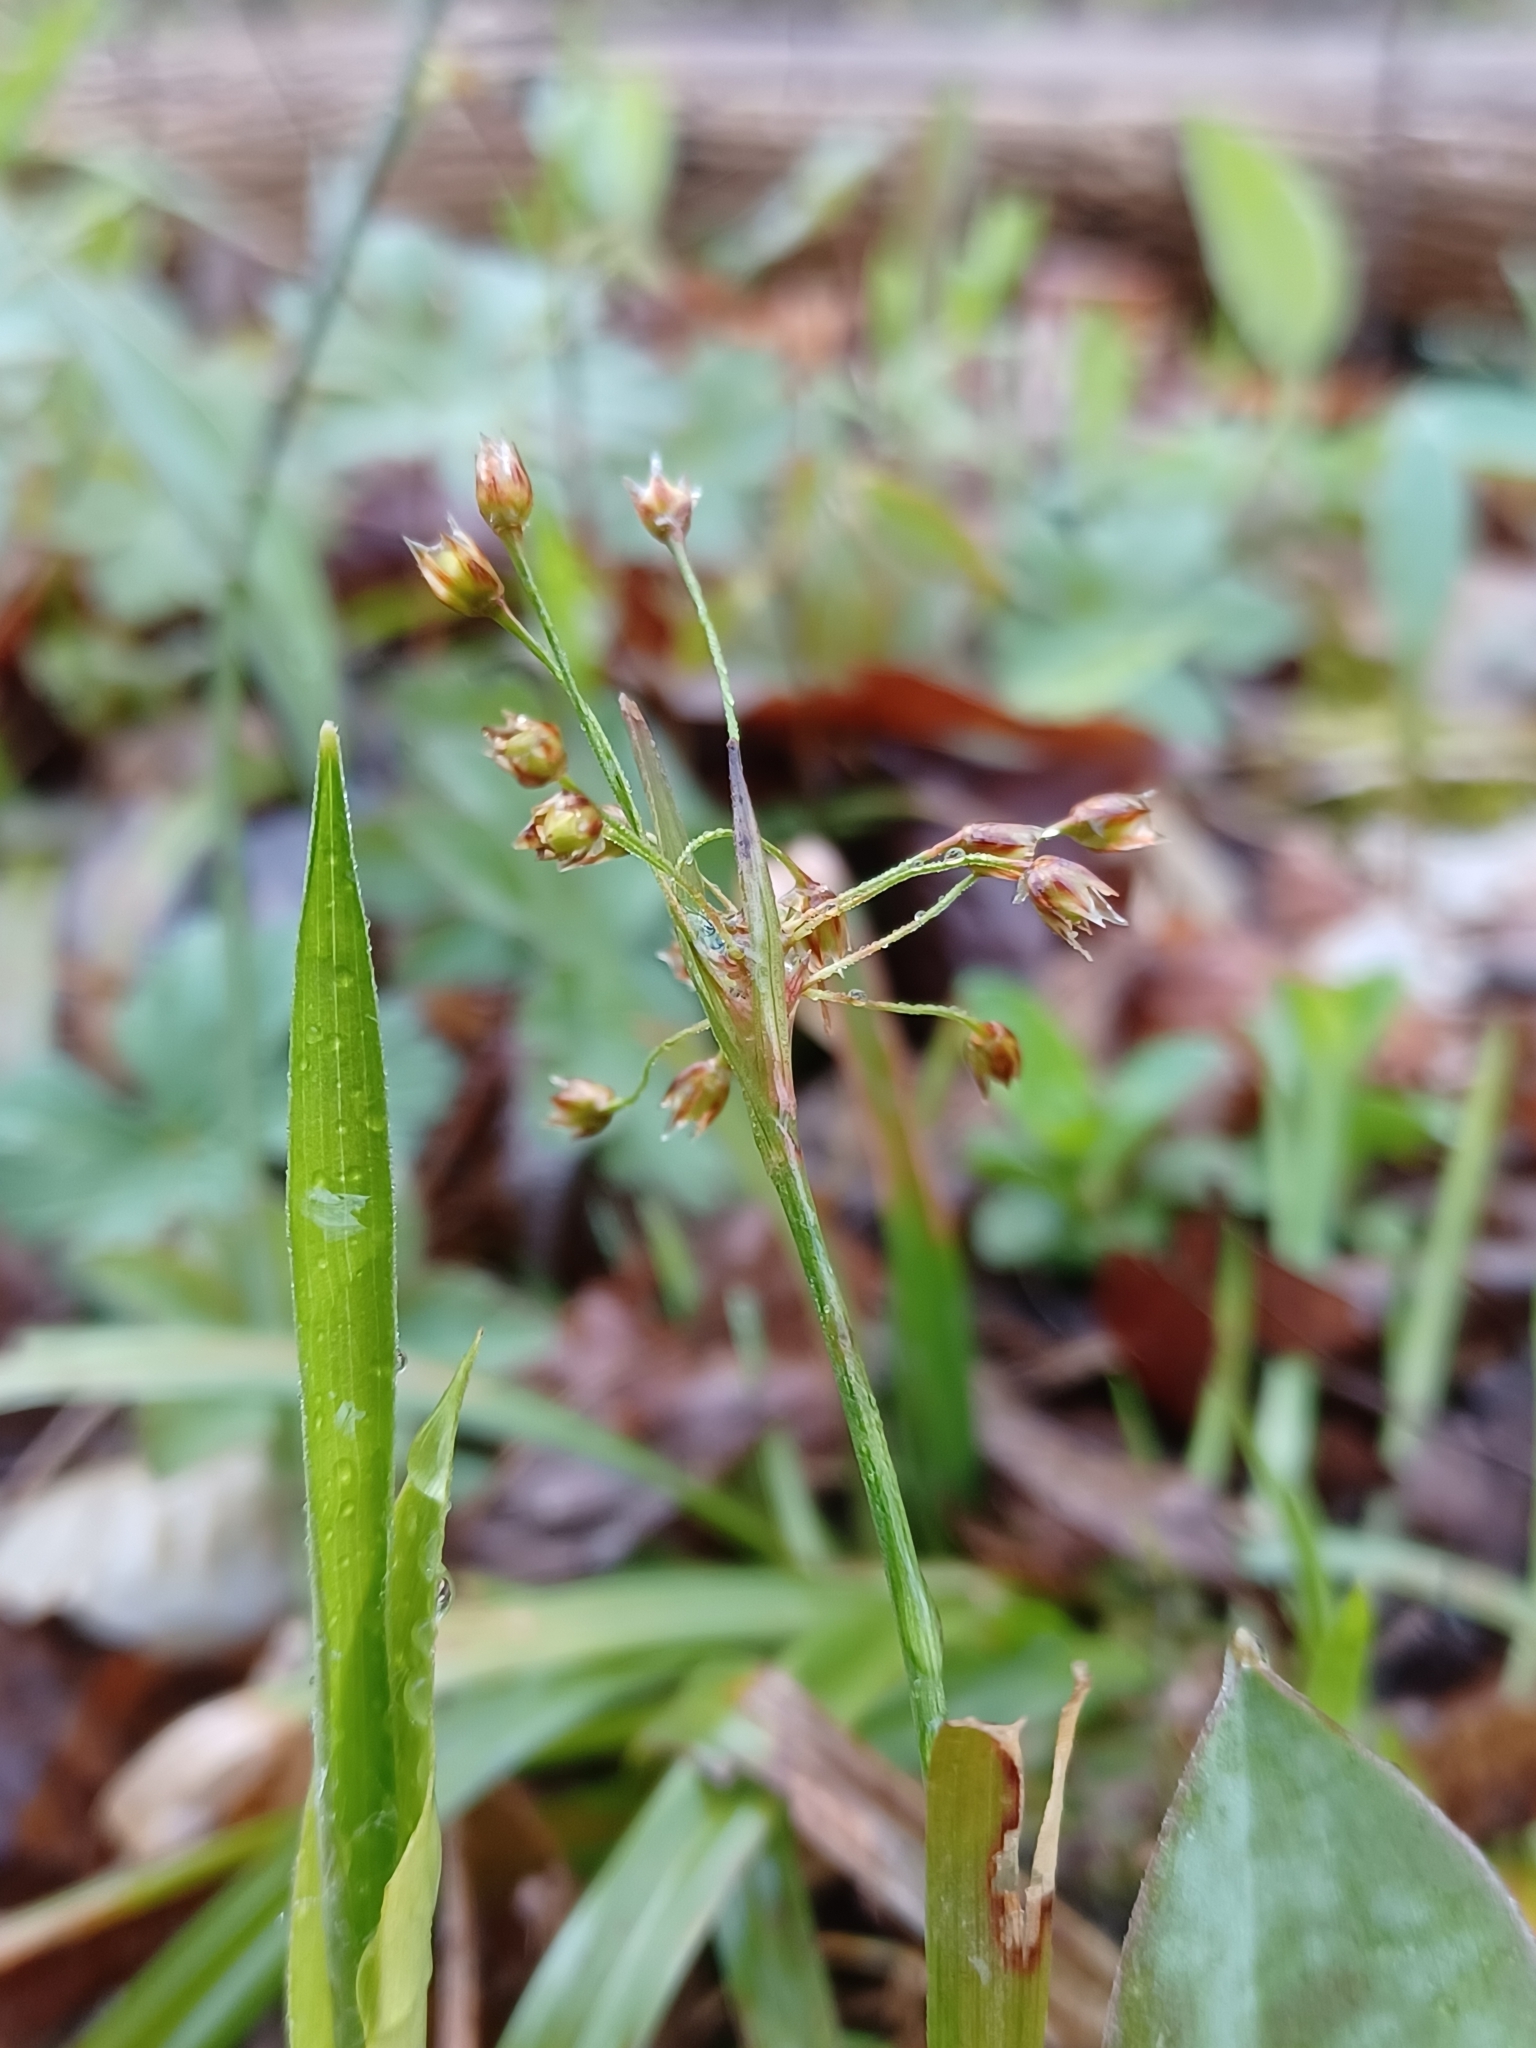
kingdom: Plantae
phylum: Tracheophyta
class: Liliopsida
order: Poales
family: Juncaceae
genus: Luzula
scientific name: Luzula acuminata
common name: Hairy woodrush
